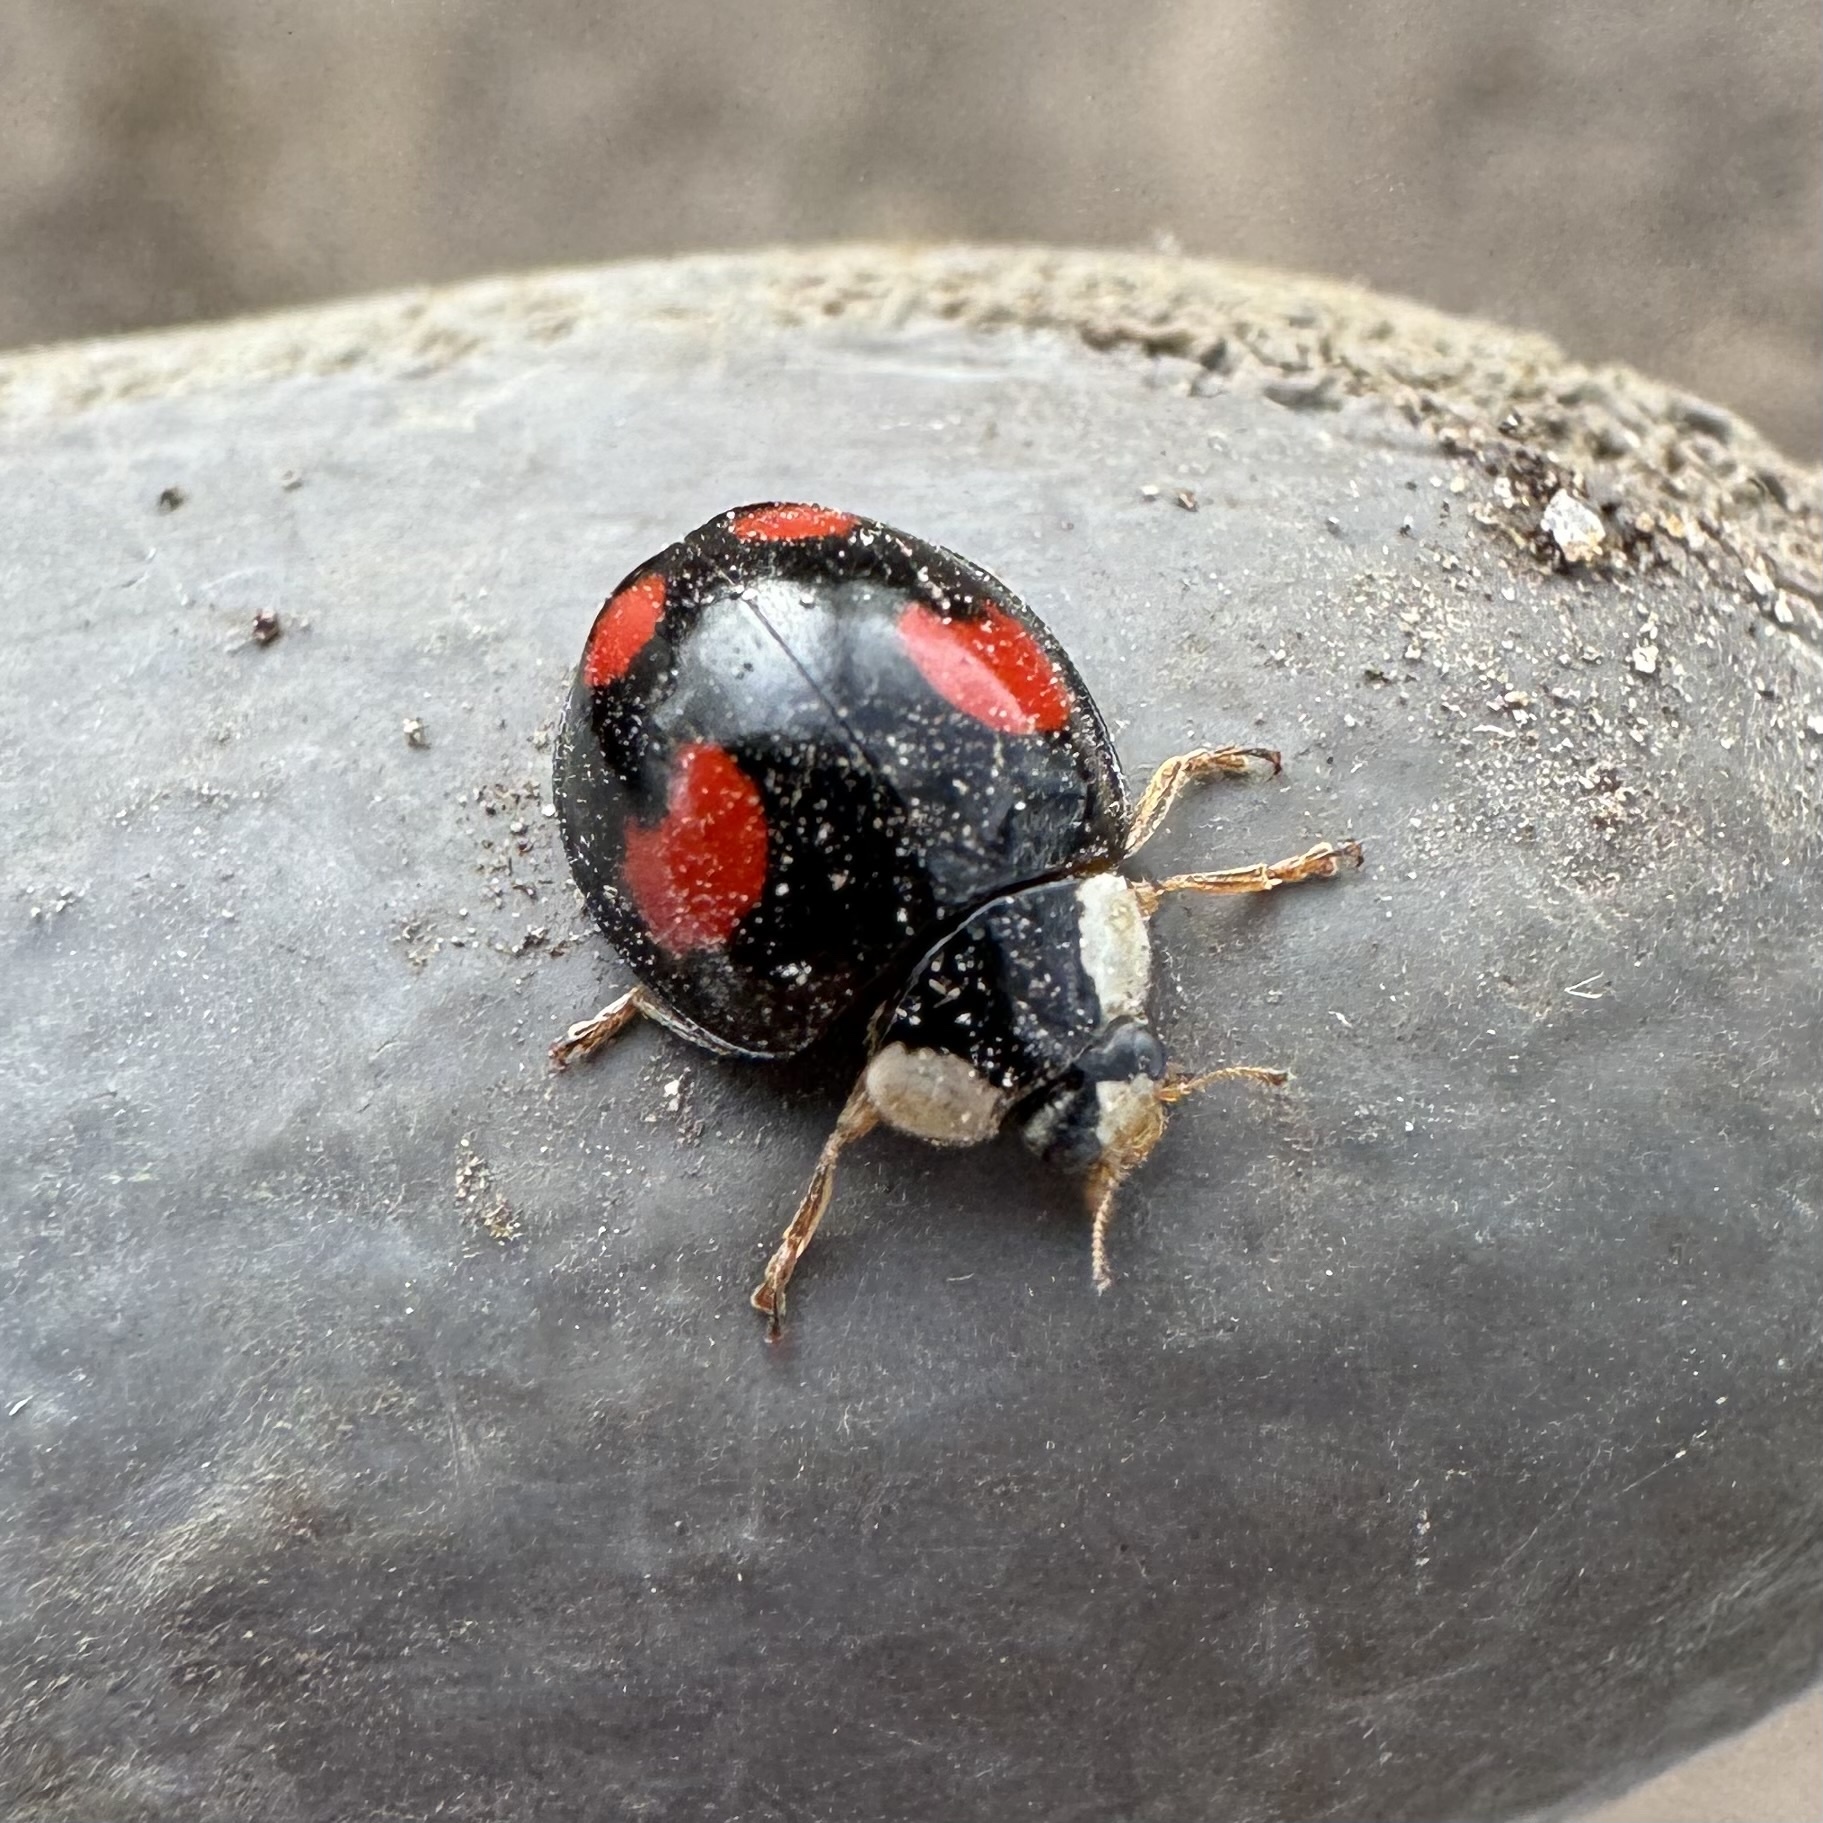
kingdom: Animalia
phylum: Arthropoda
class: Insecta
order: Coleoptera
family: Coccinellidae
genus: Harmonia
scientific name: Harmonia axyridis
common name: Harlequin ladybird
